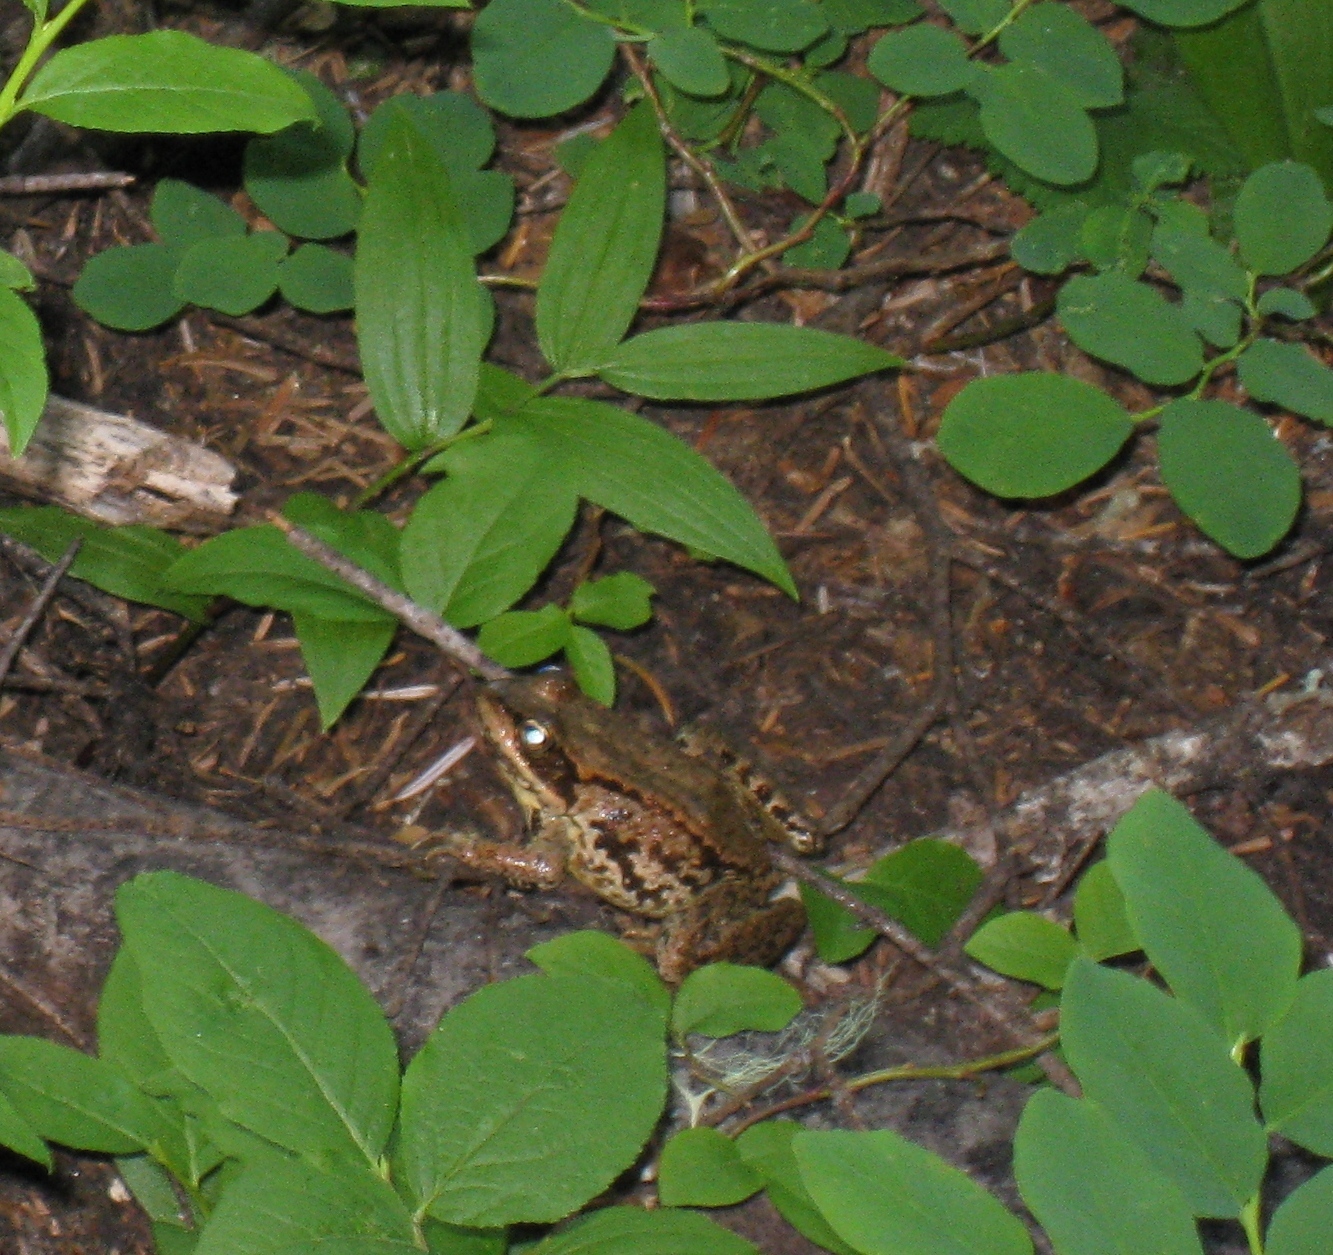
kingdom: Animalia
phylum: Chordata
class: Amphibia
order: Anura
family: Ranidae
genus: Rana
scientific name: Rana cascadae
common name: Cascades frog
